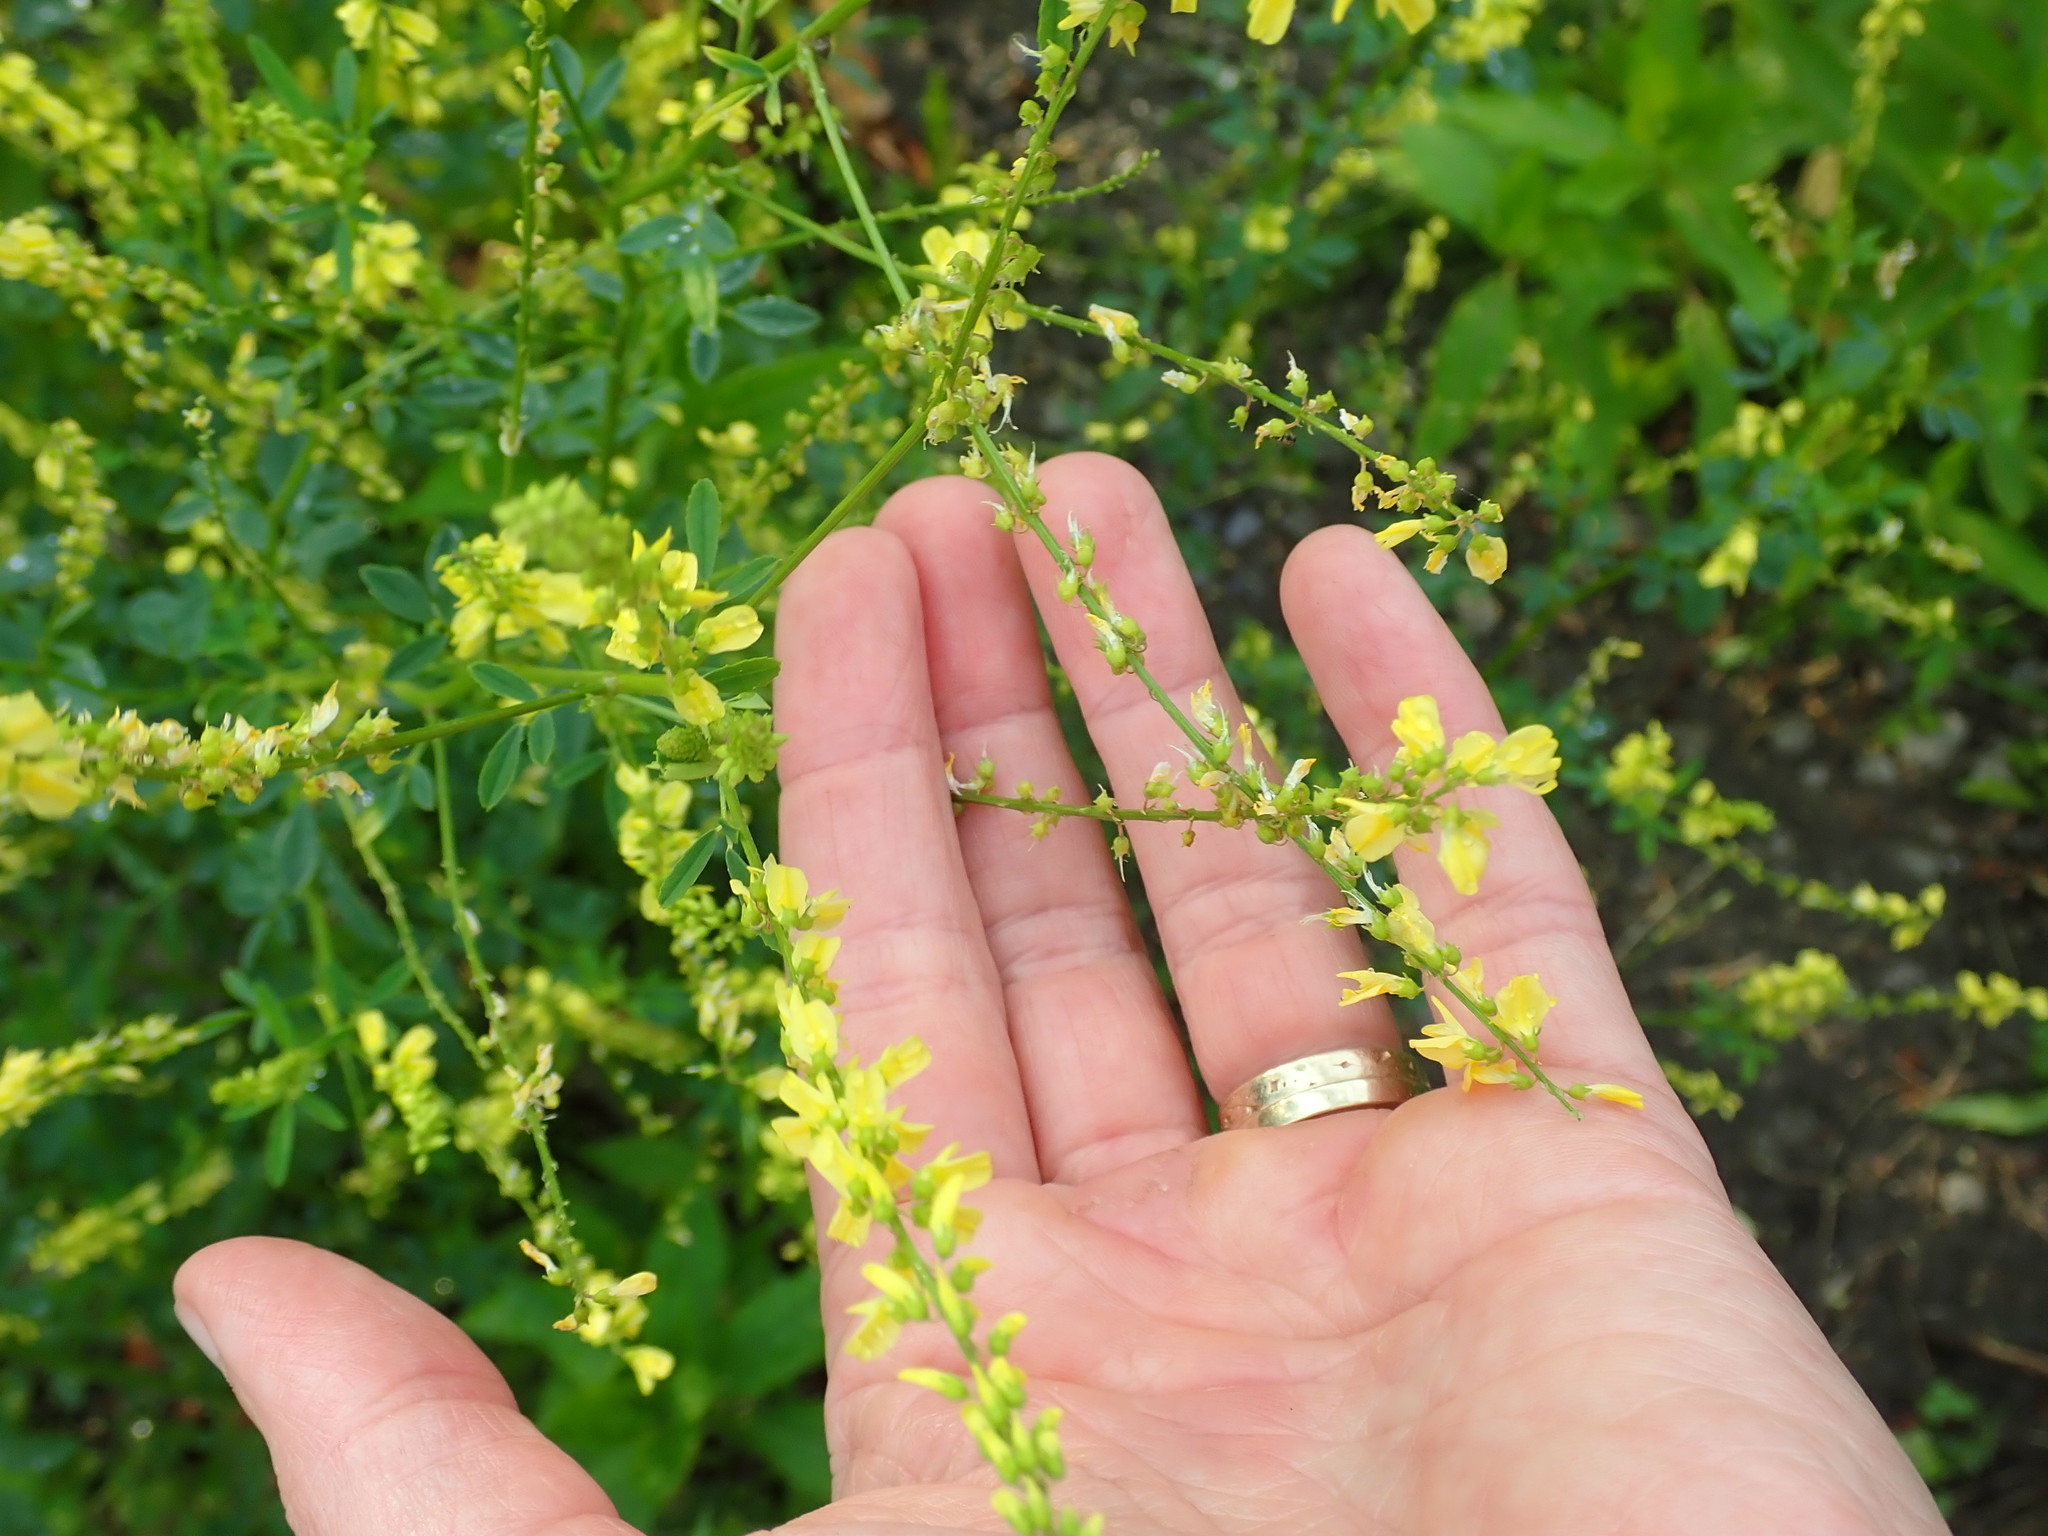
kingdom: Plantae
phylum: Tracheophyta
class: Magnoliopsida
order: Fabales
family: Fabaceae
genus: Melilotus
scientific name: Melilotus officinalis
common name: Sweetclover
